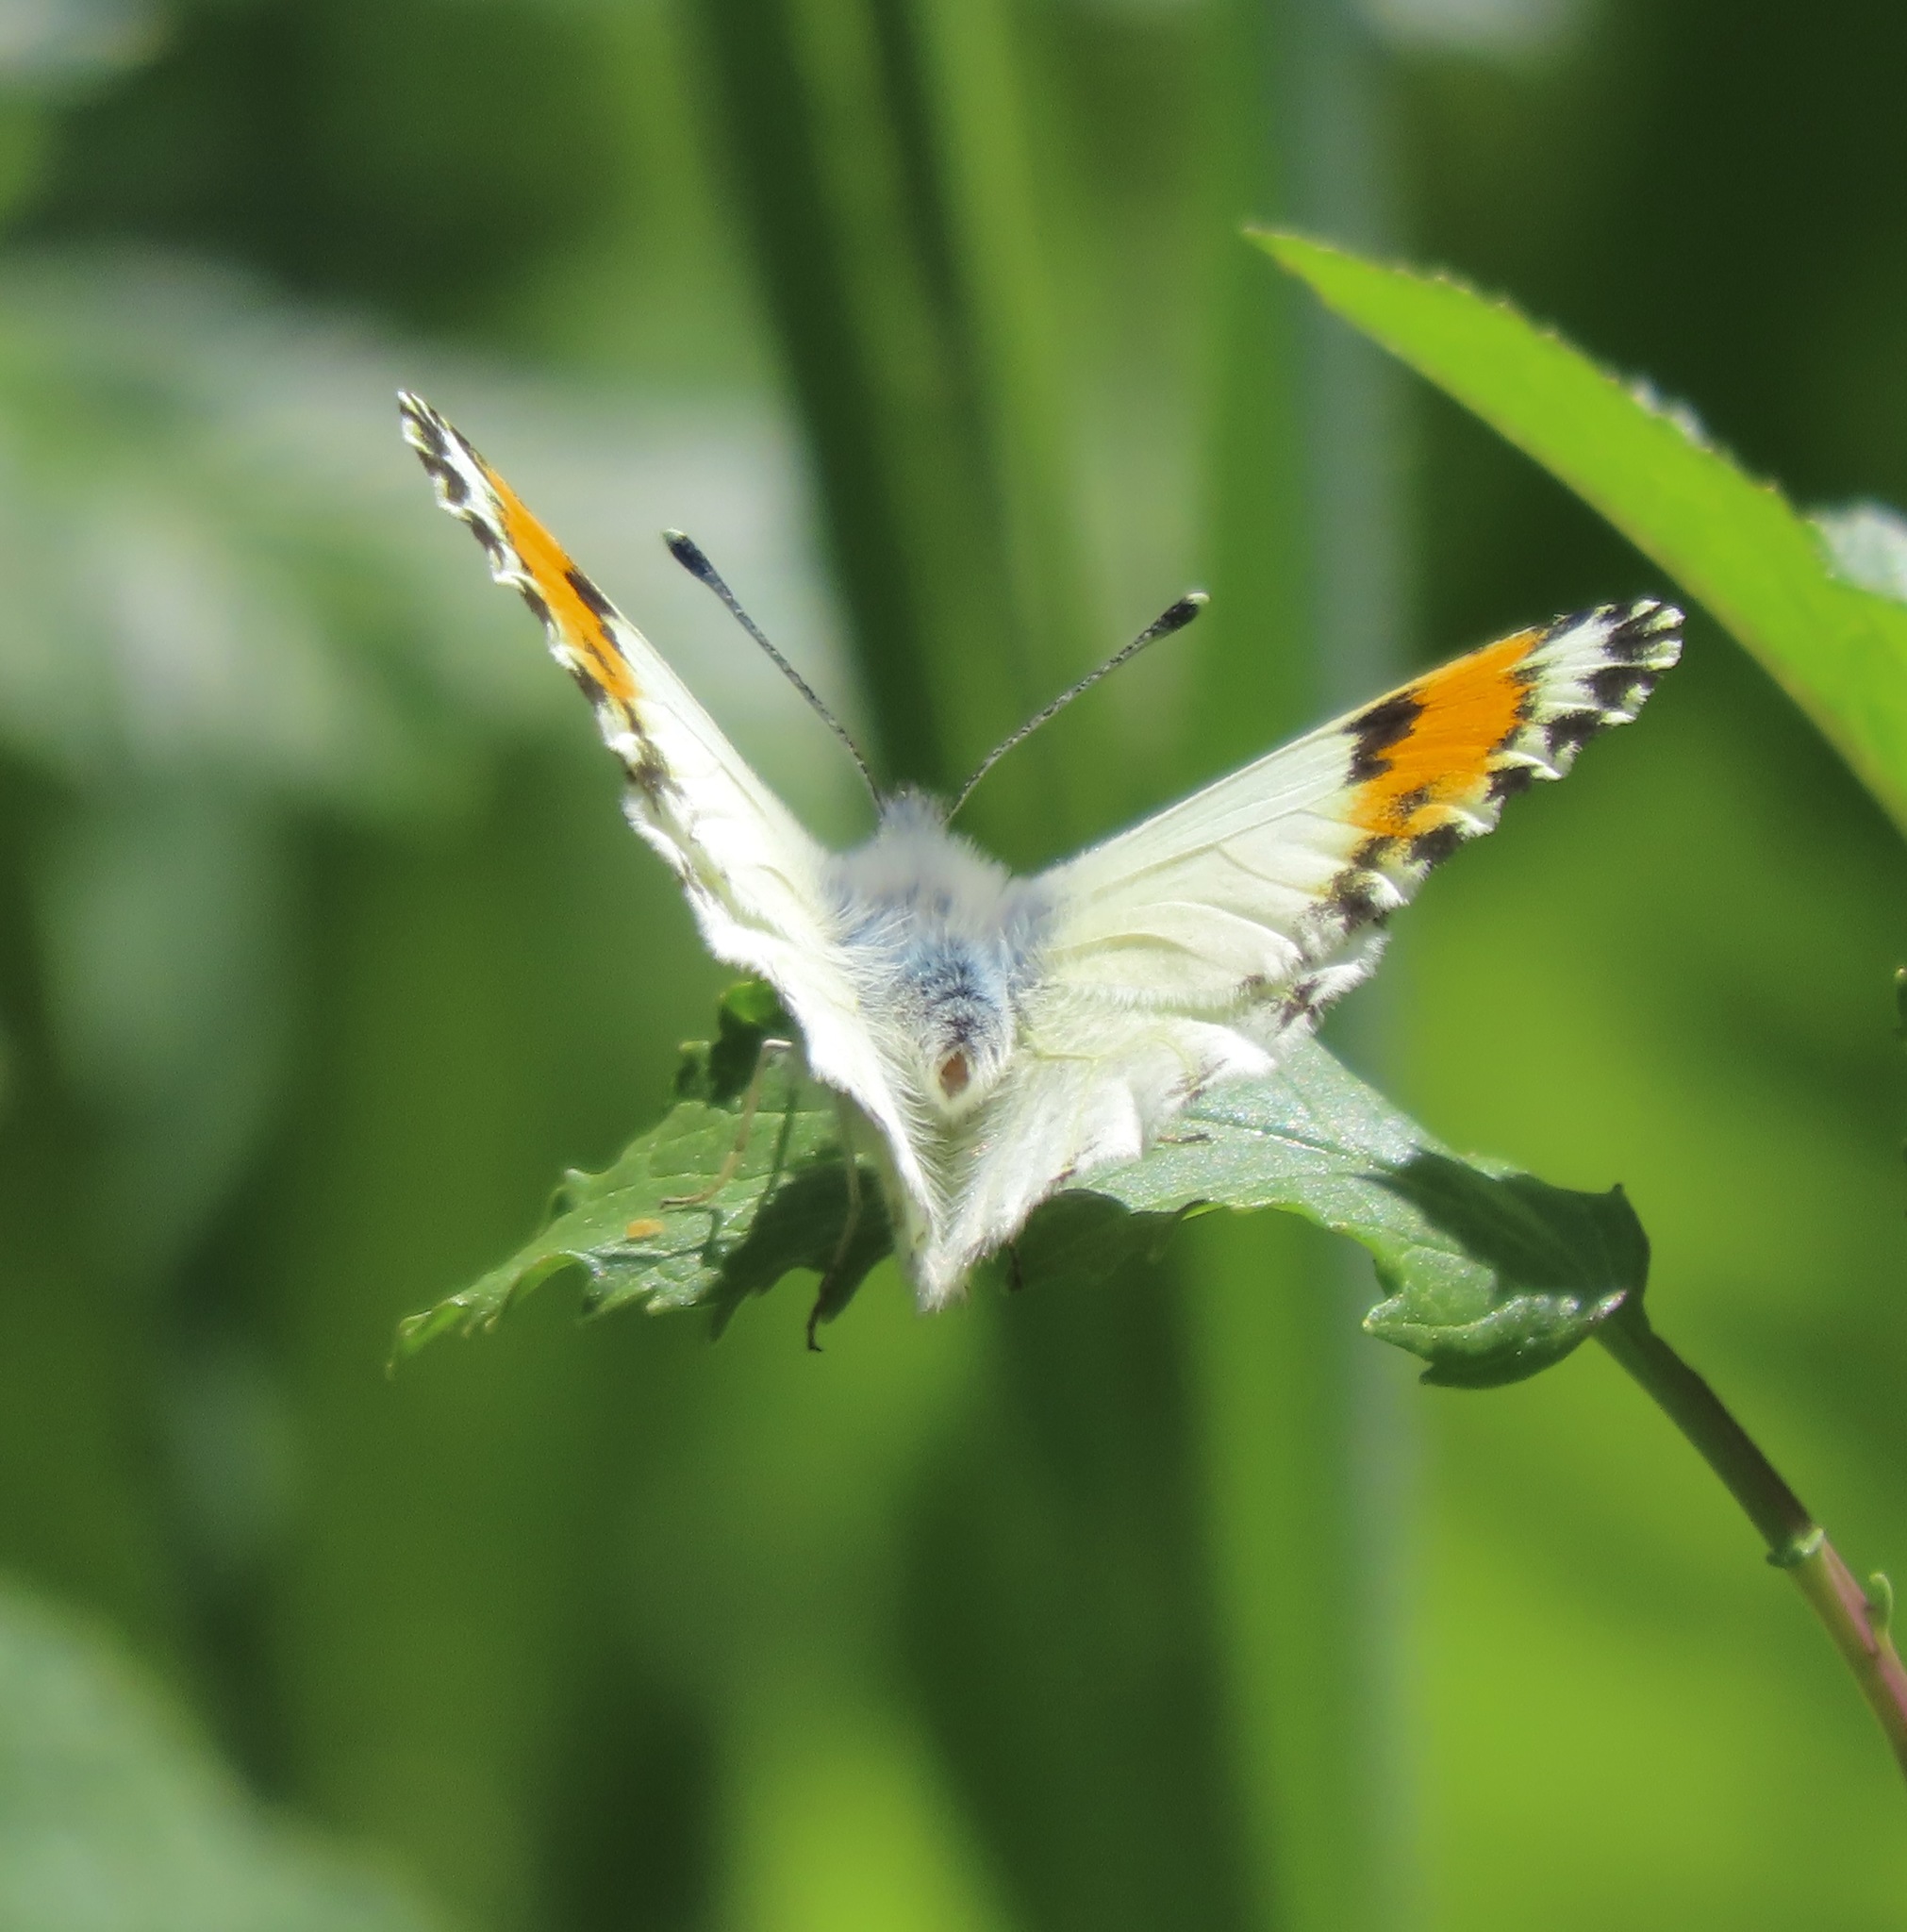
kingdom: Animalia
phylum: Arthropoda
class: Insecta
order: Lepidoptera
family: Pieridae
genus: Anthocharis
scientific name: Anthocharis sara
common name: Sara's orangetip
